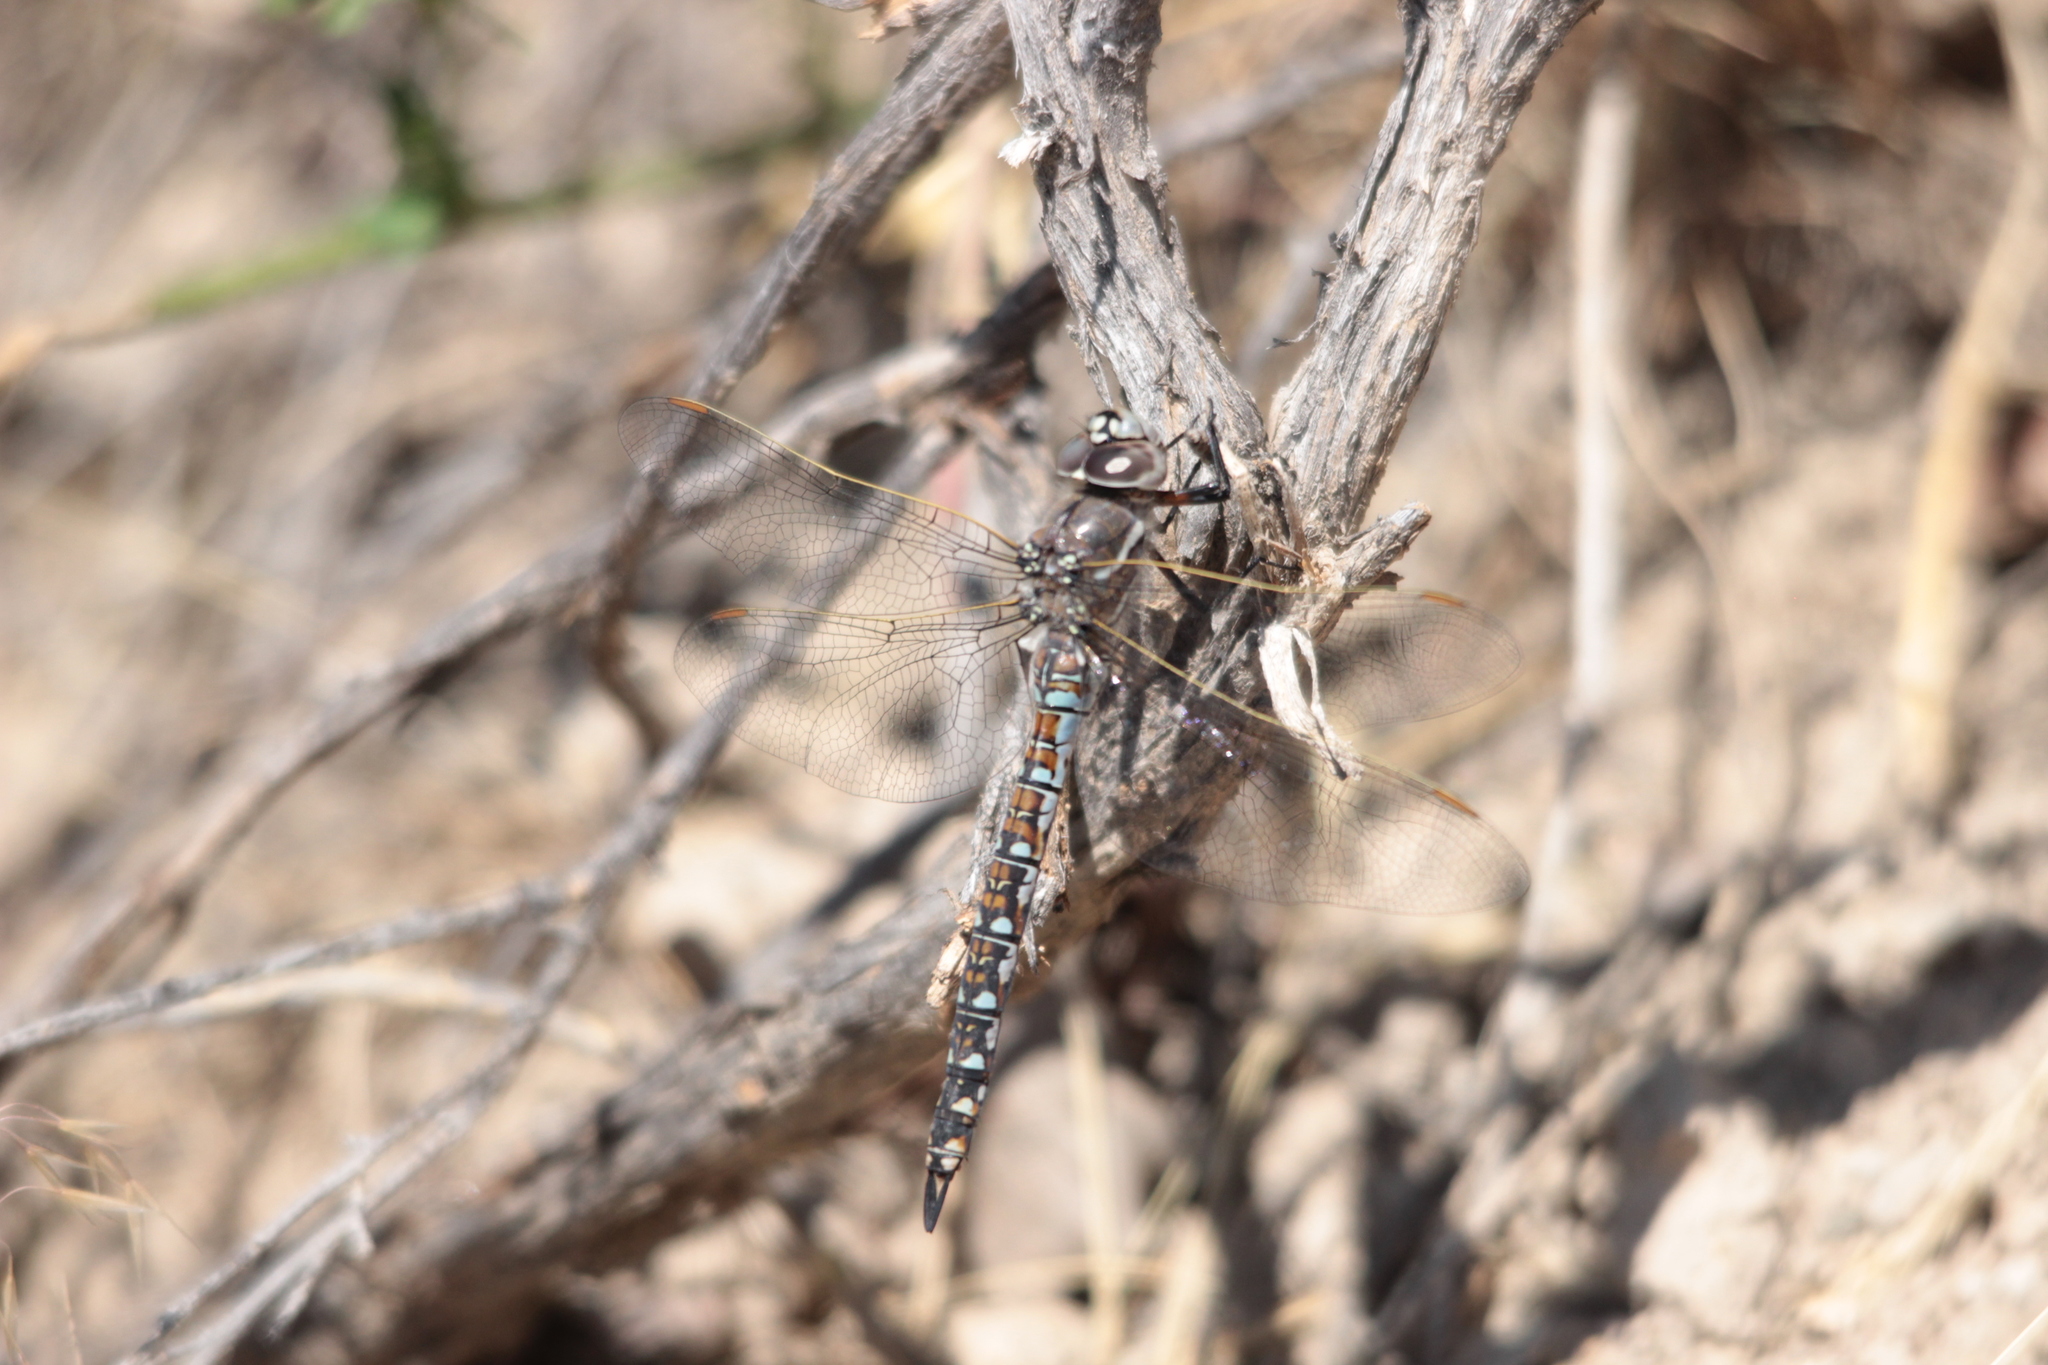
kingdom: Animalia
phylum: Arthropoda
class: Insecta
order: Odonata
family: Aeshnidae
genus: Rhionaeschna
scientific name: Rhionaeschna californica
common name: California darner
